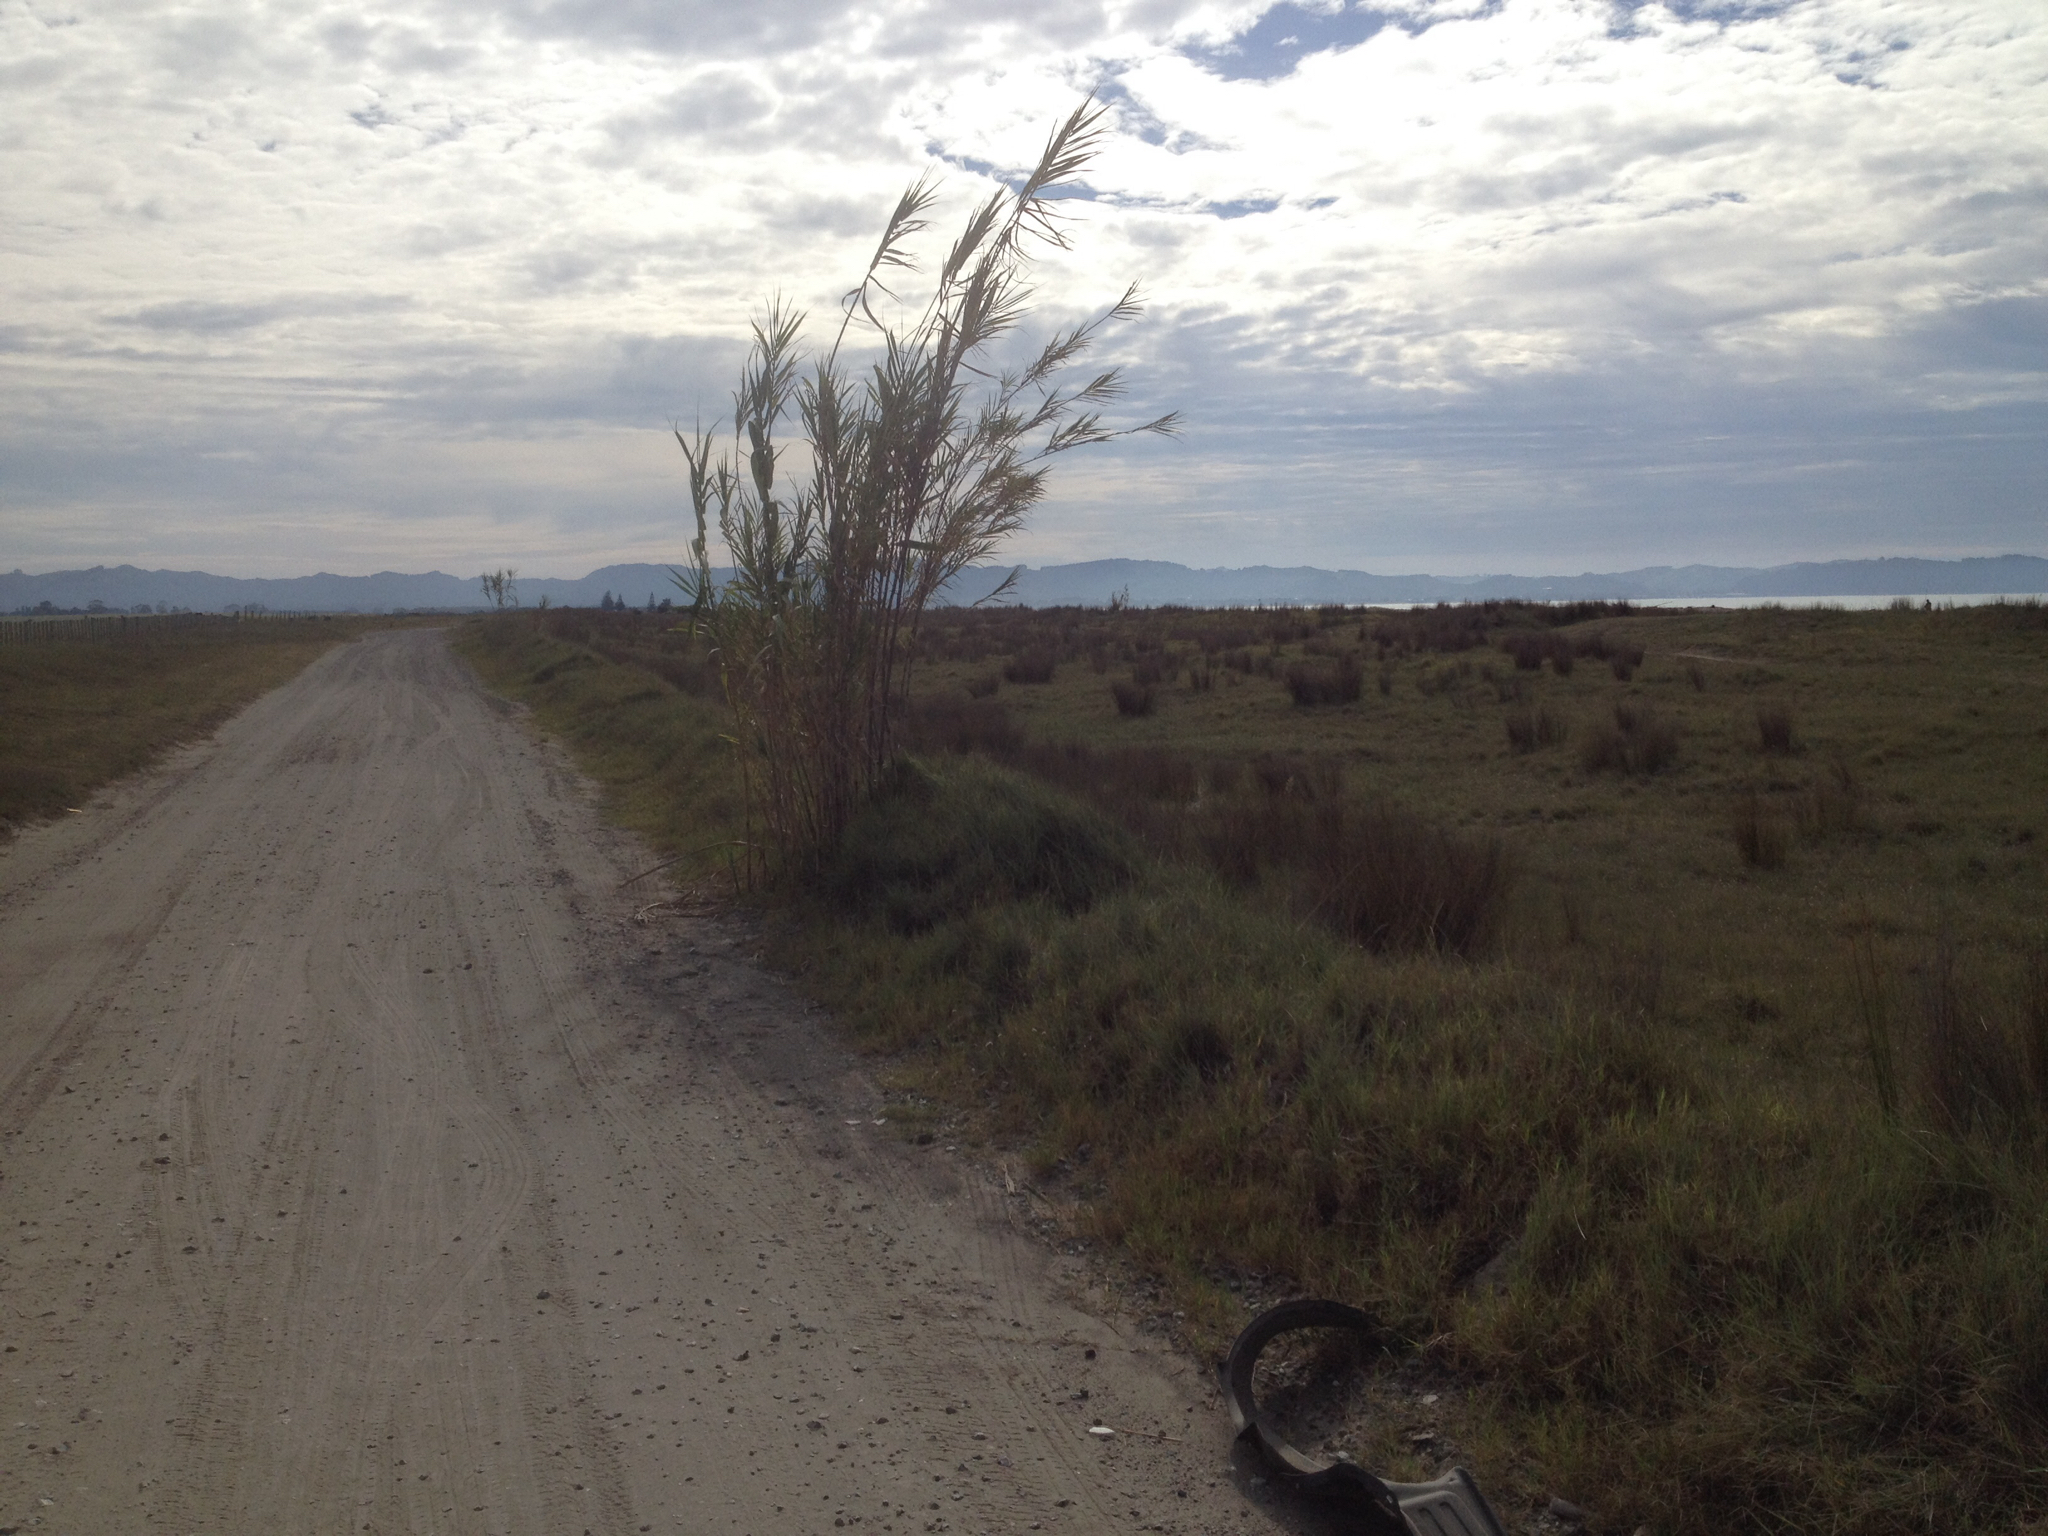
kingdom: Plantae
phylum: Tracheophyta
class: Liliopsida
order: Poales
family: Poaceae
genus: Arundo
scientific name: Arundo donax
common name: Giant reed
